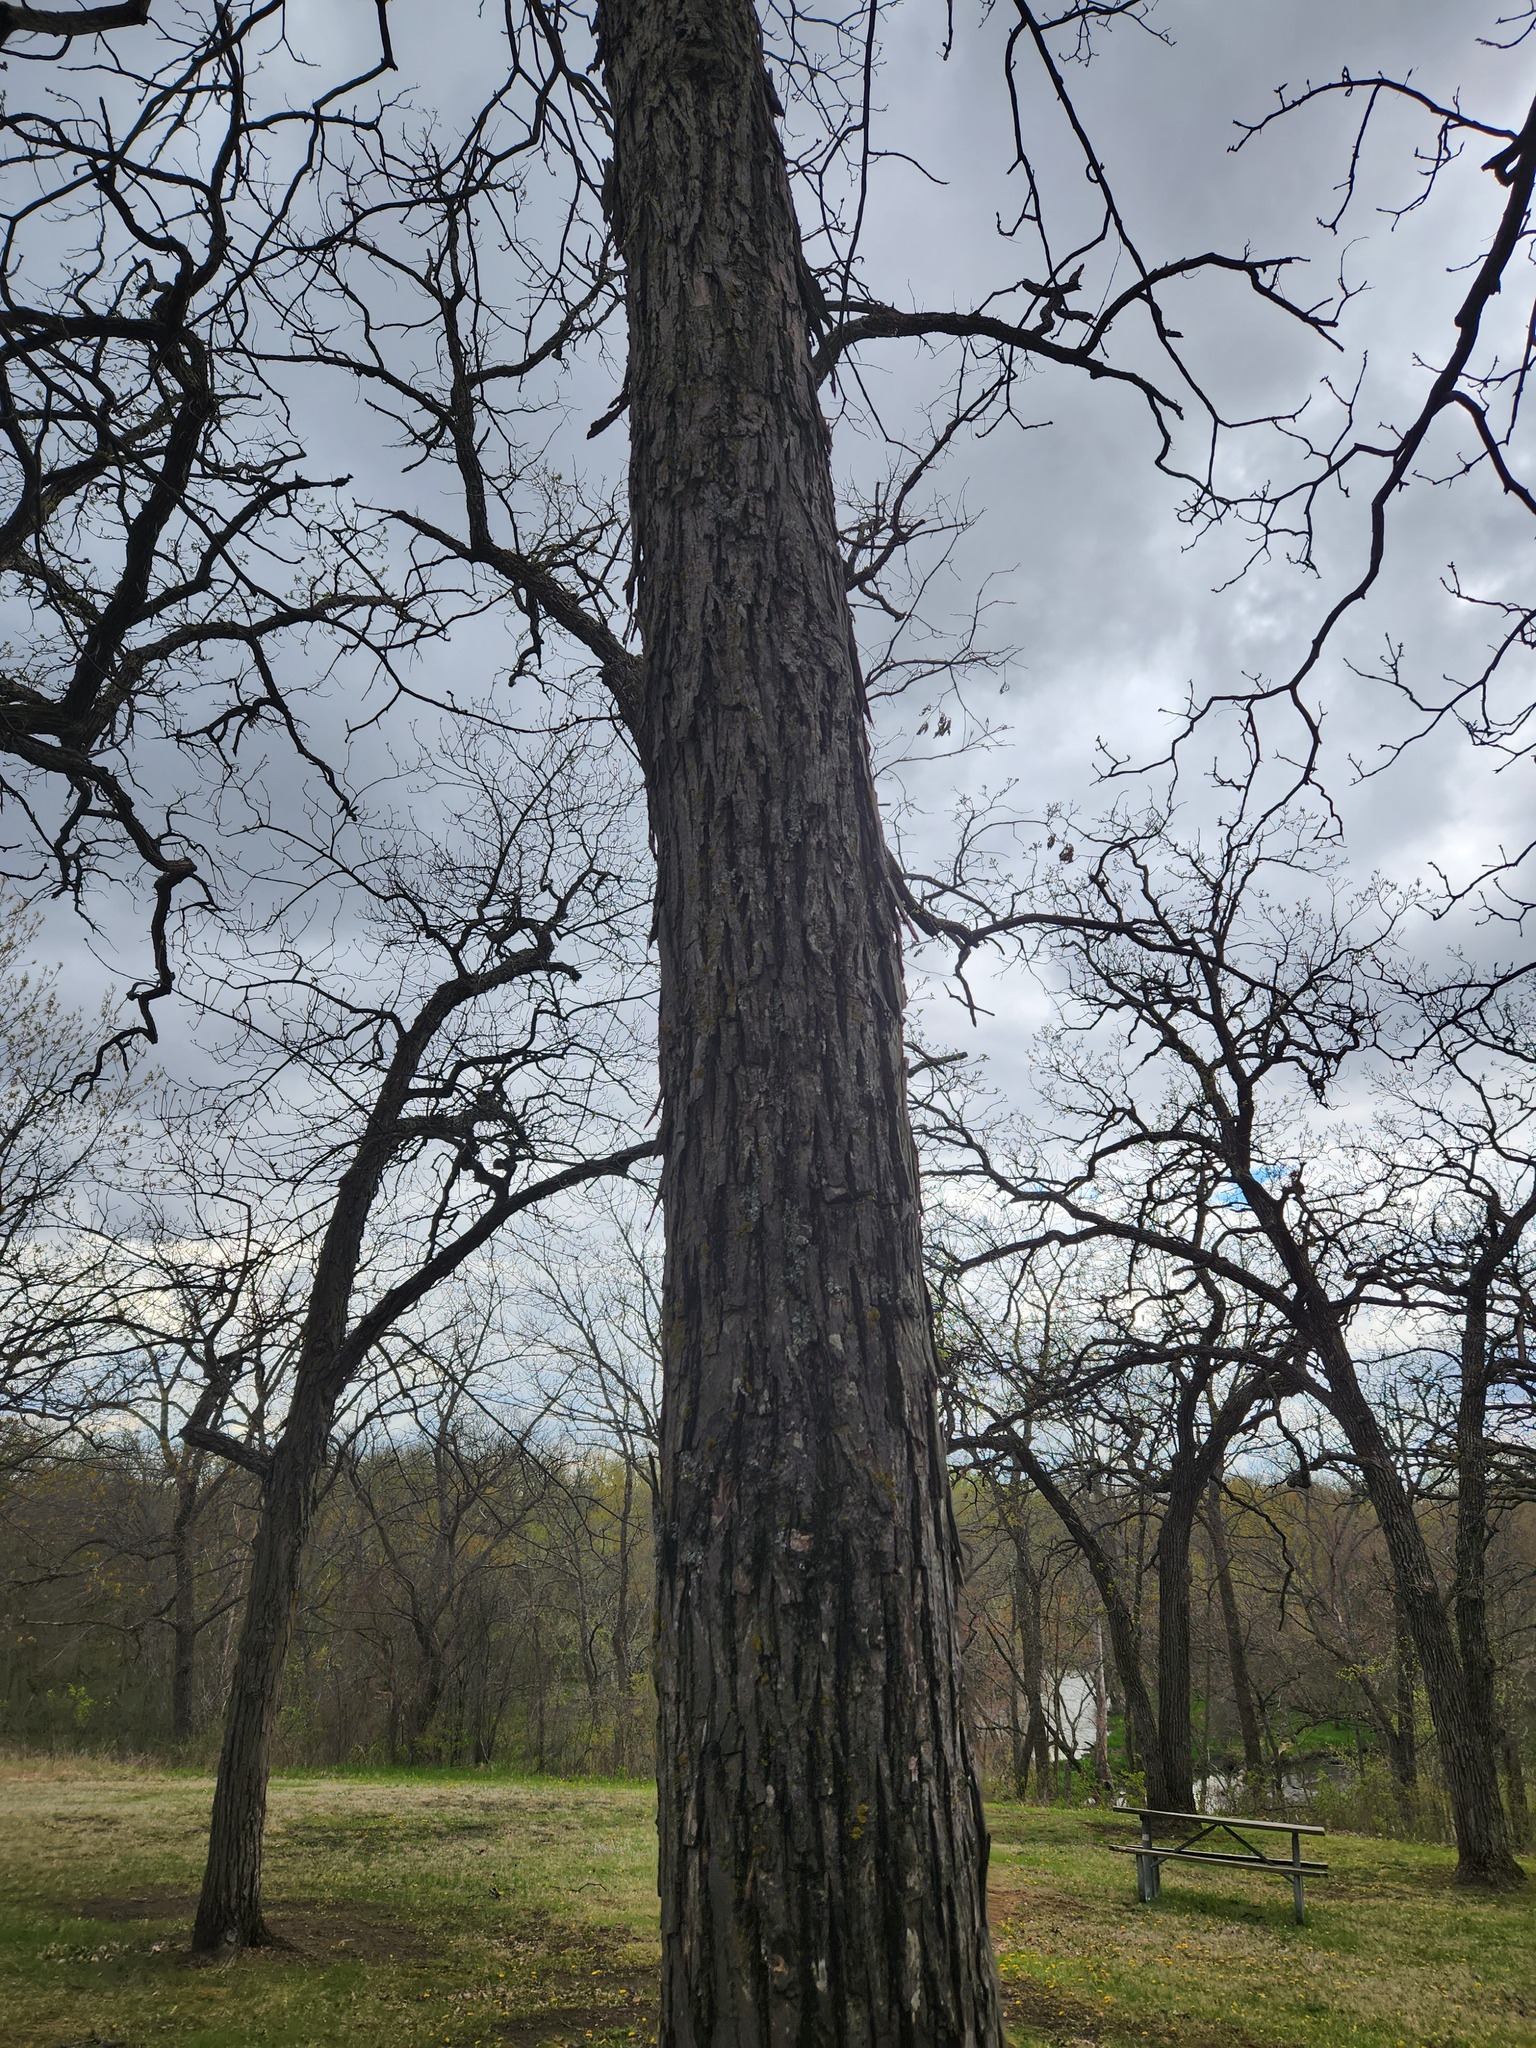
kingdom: Plantae
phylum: Tracheophyta
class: Magnoliopsida
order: Fagales
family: Juglandaceae
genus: Carya
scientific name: Carya ovata
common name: Shagbark hickory
